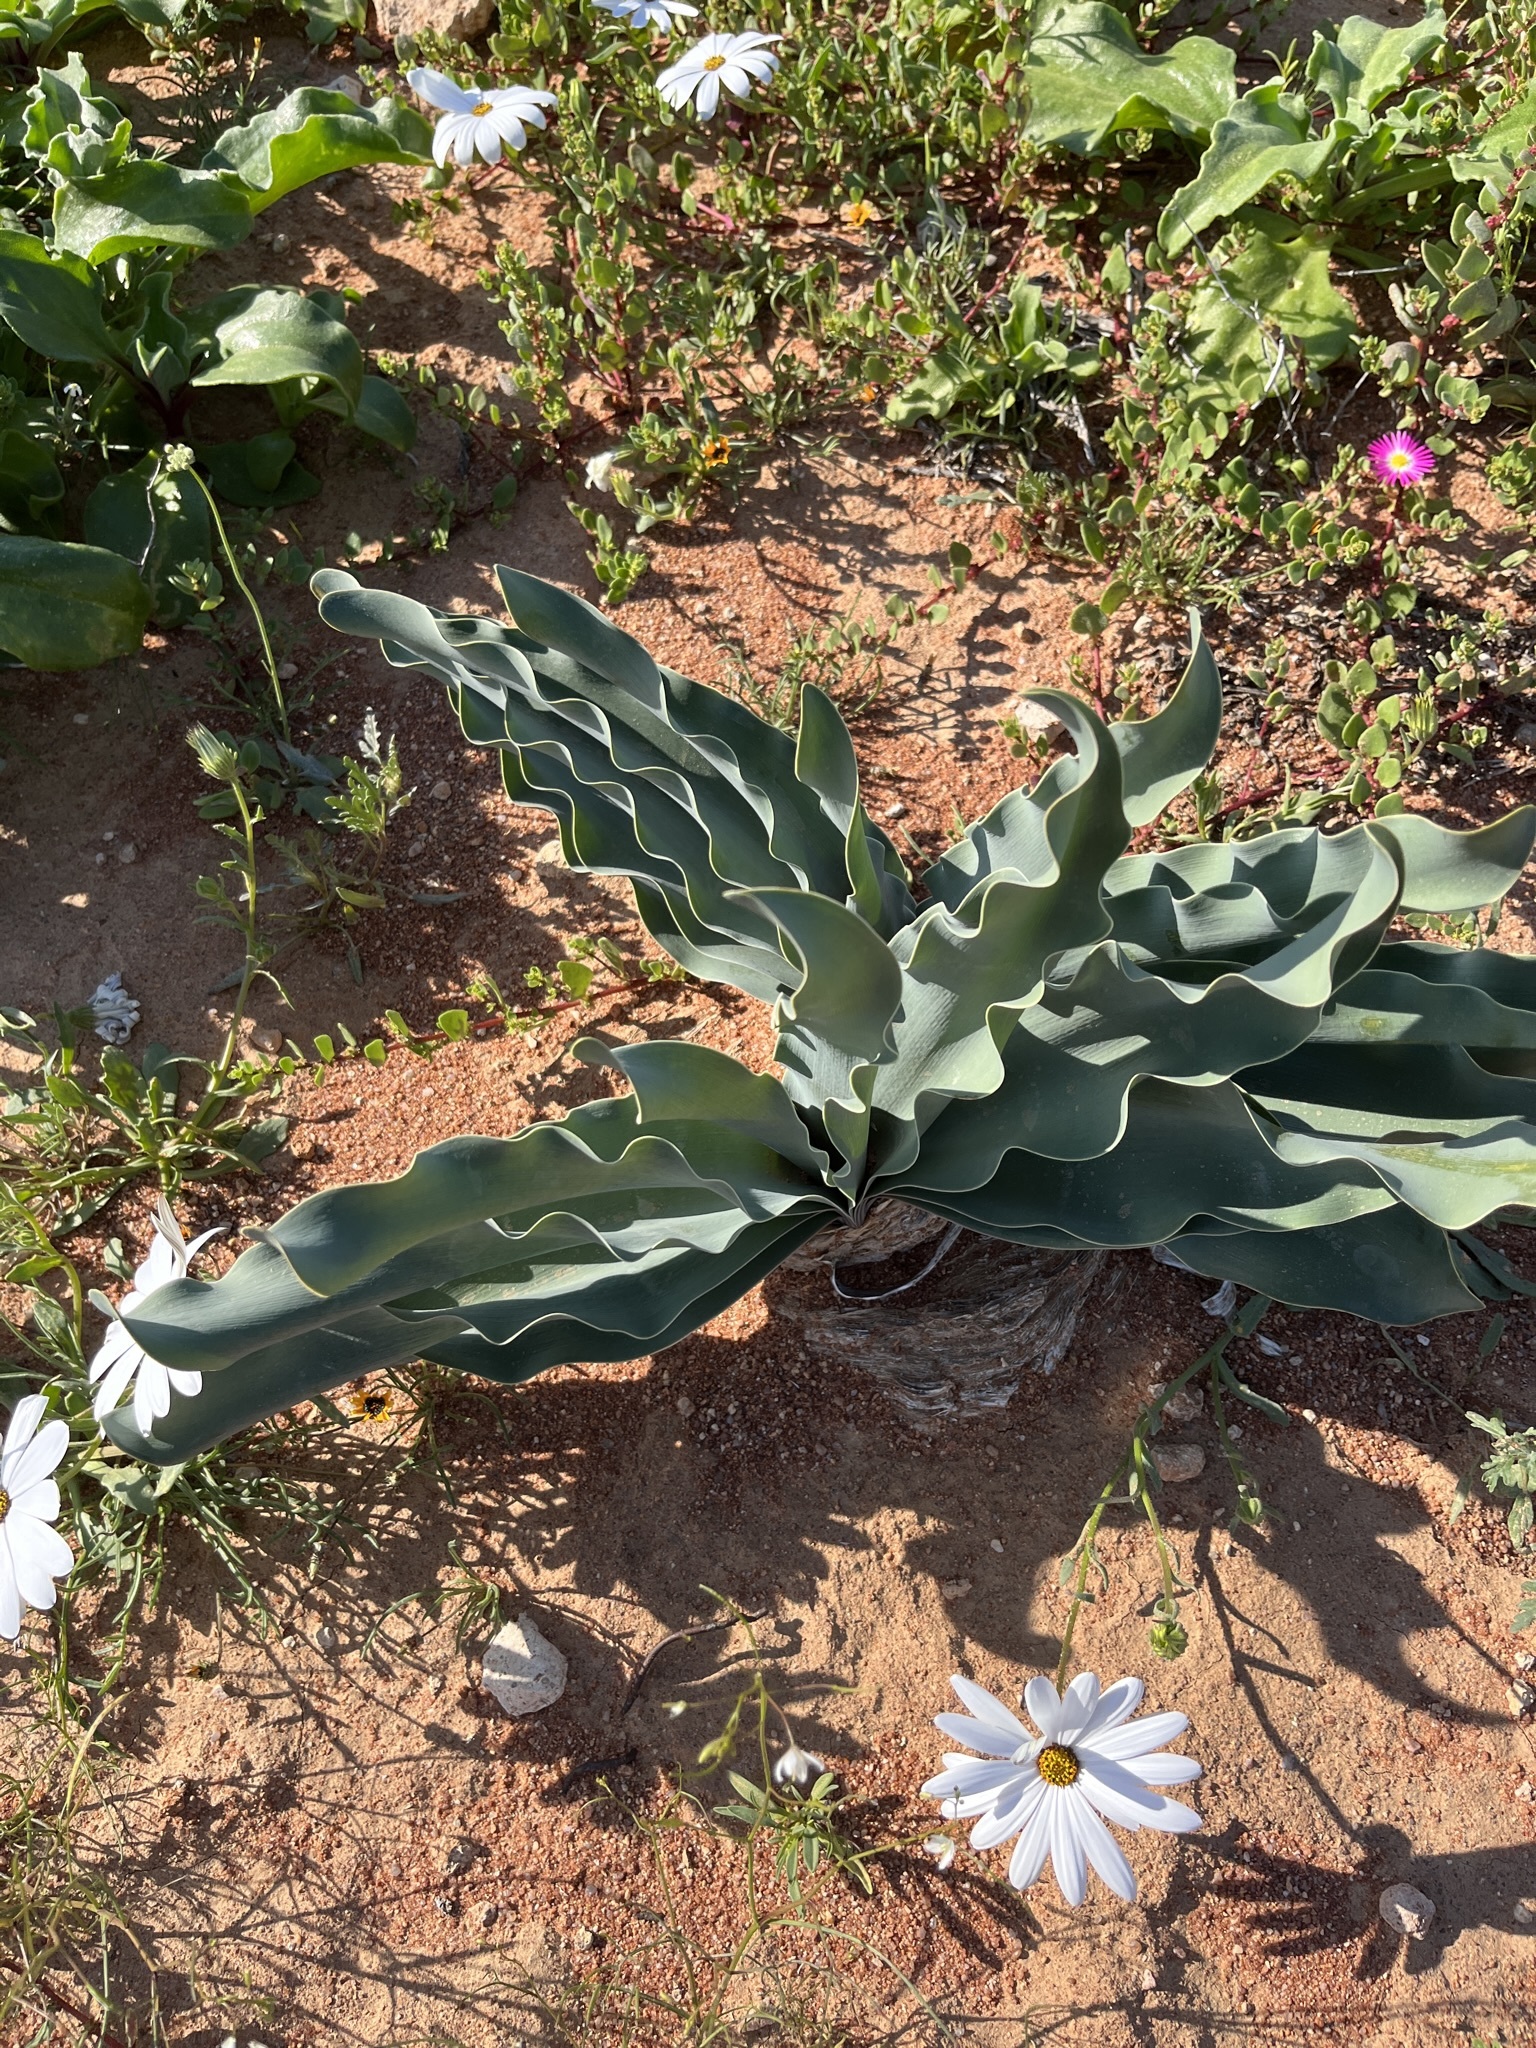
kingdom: Plantae
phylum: Tracheophyta
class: Liliopsida
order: Asparagales
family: Amaryllidaceae
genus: Boophone
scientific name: Boophone haemanthoides
